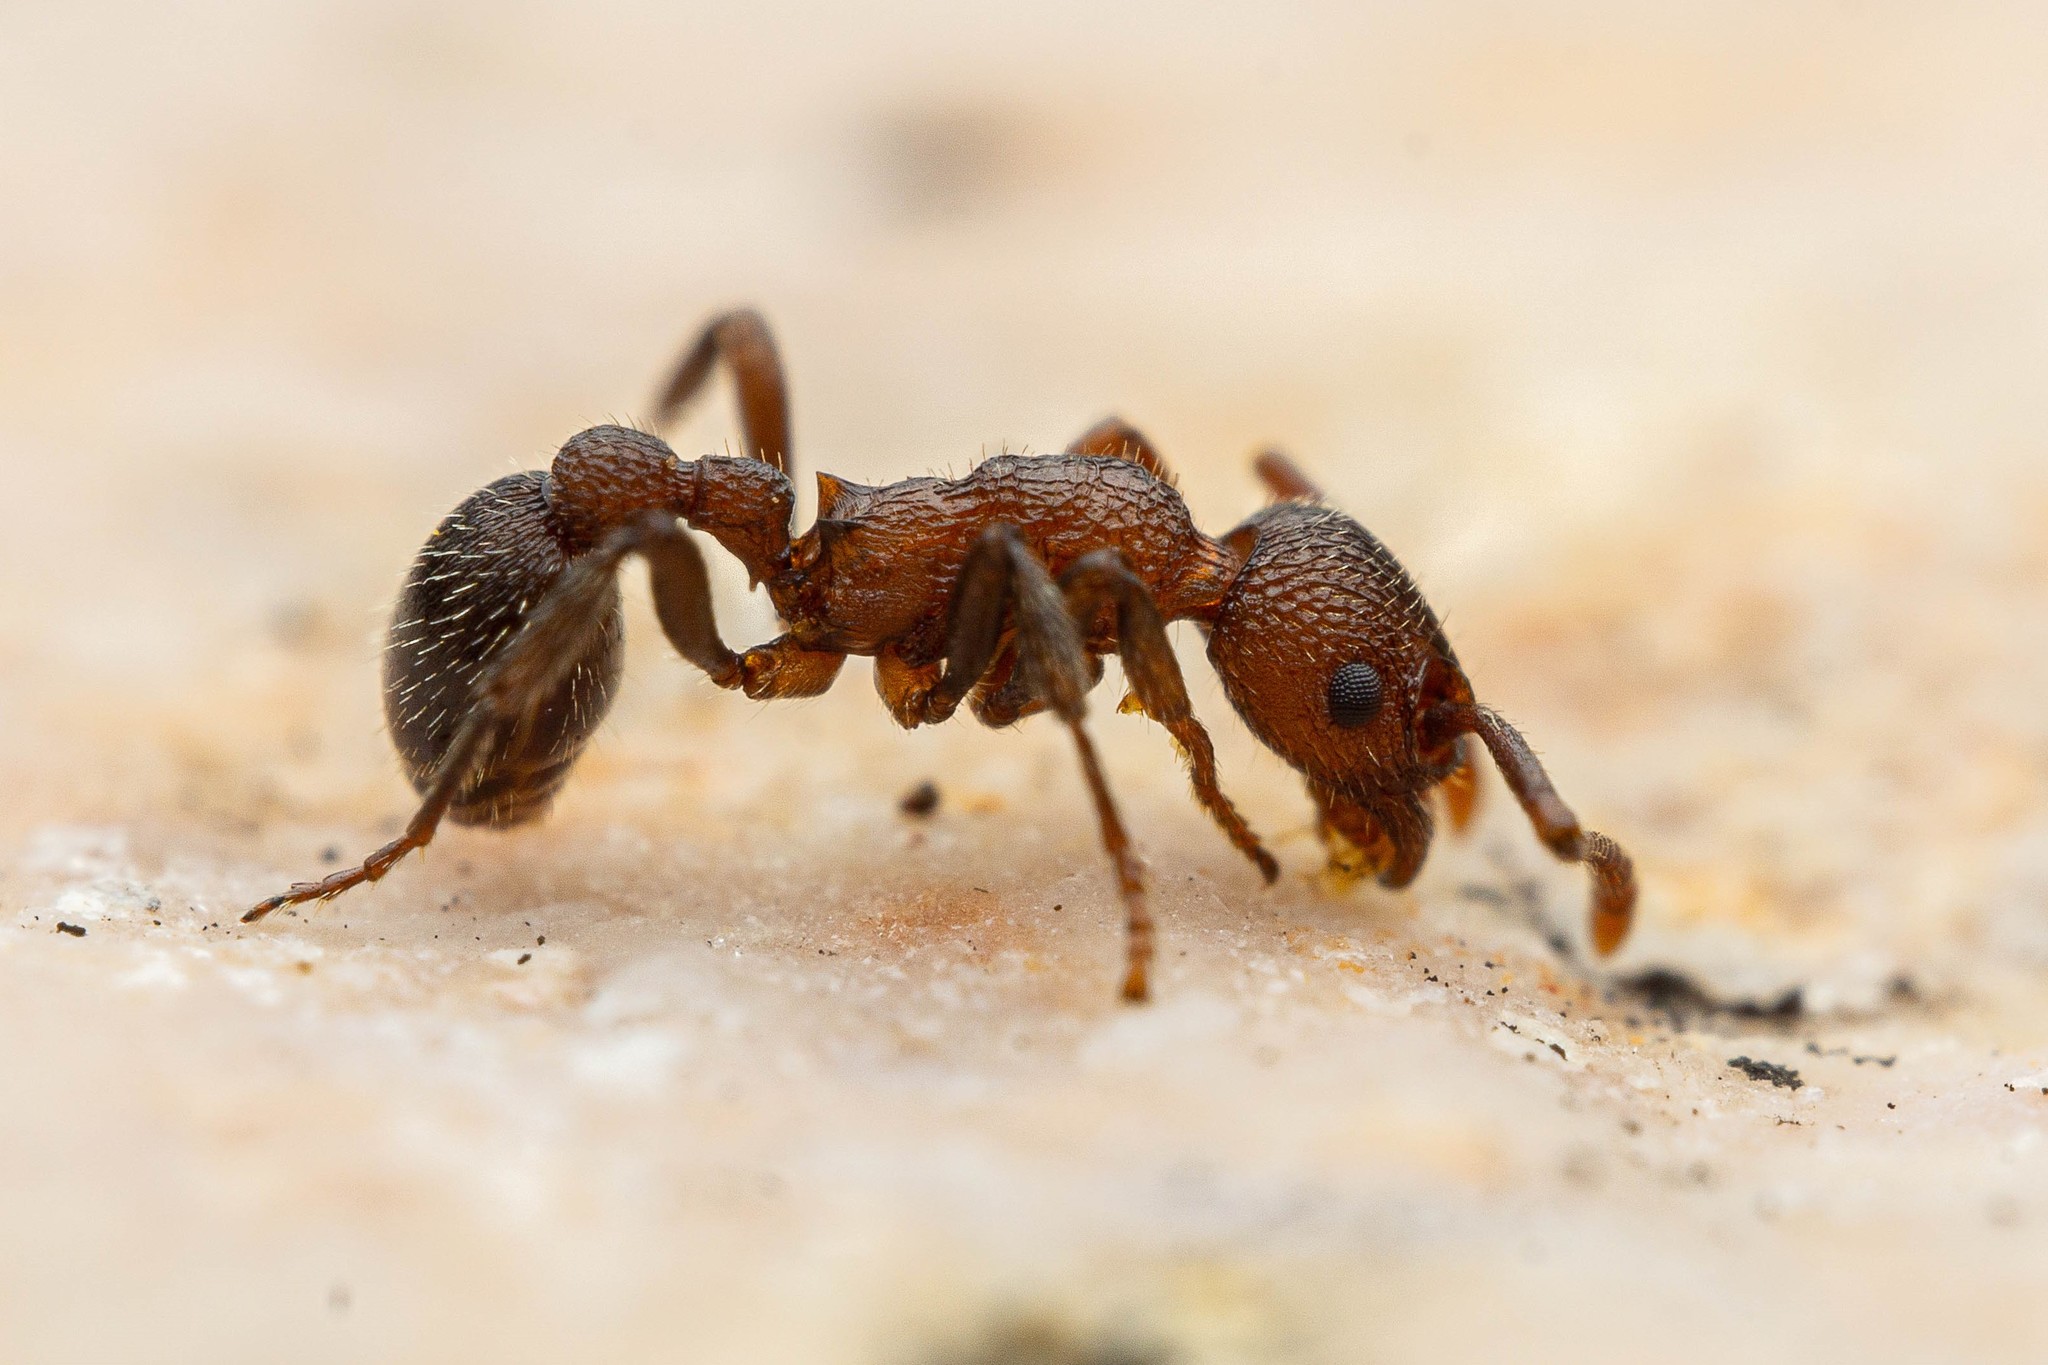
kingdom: Animalia
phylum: Arthropoda
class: Insecta
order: Hymenoptera
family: Formicidae
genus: Myrmica
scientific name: Myrmica rugiventris
